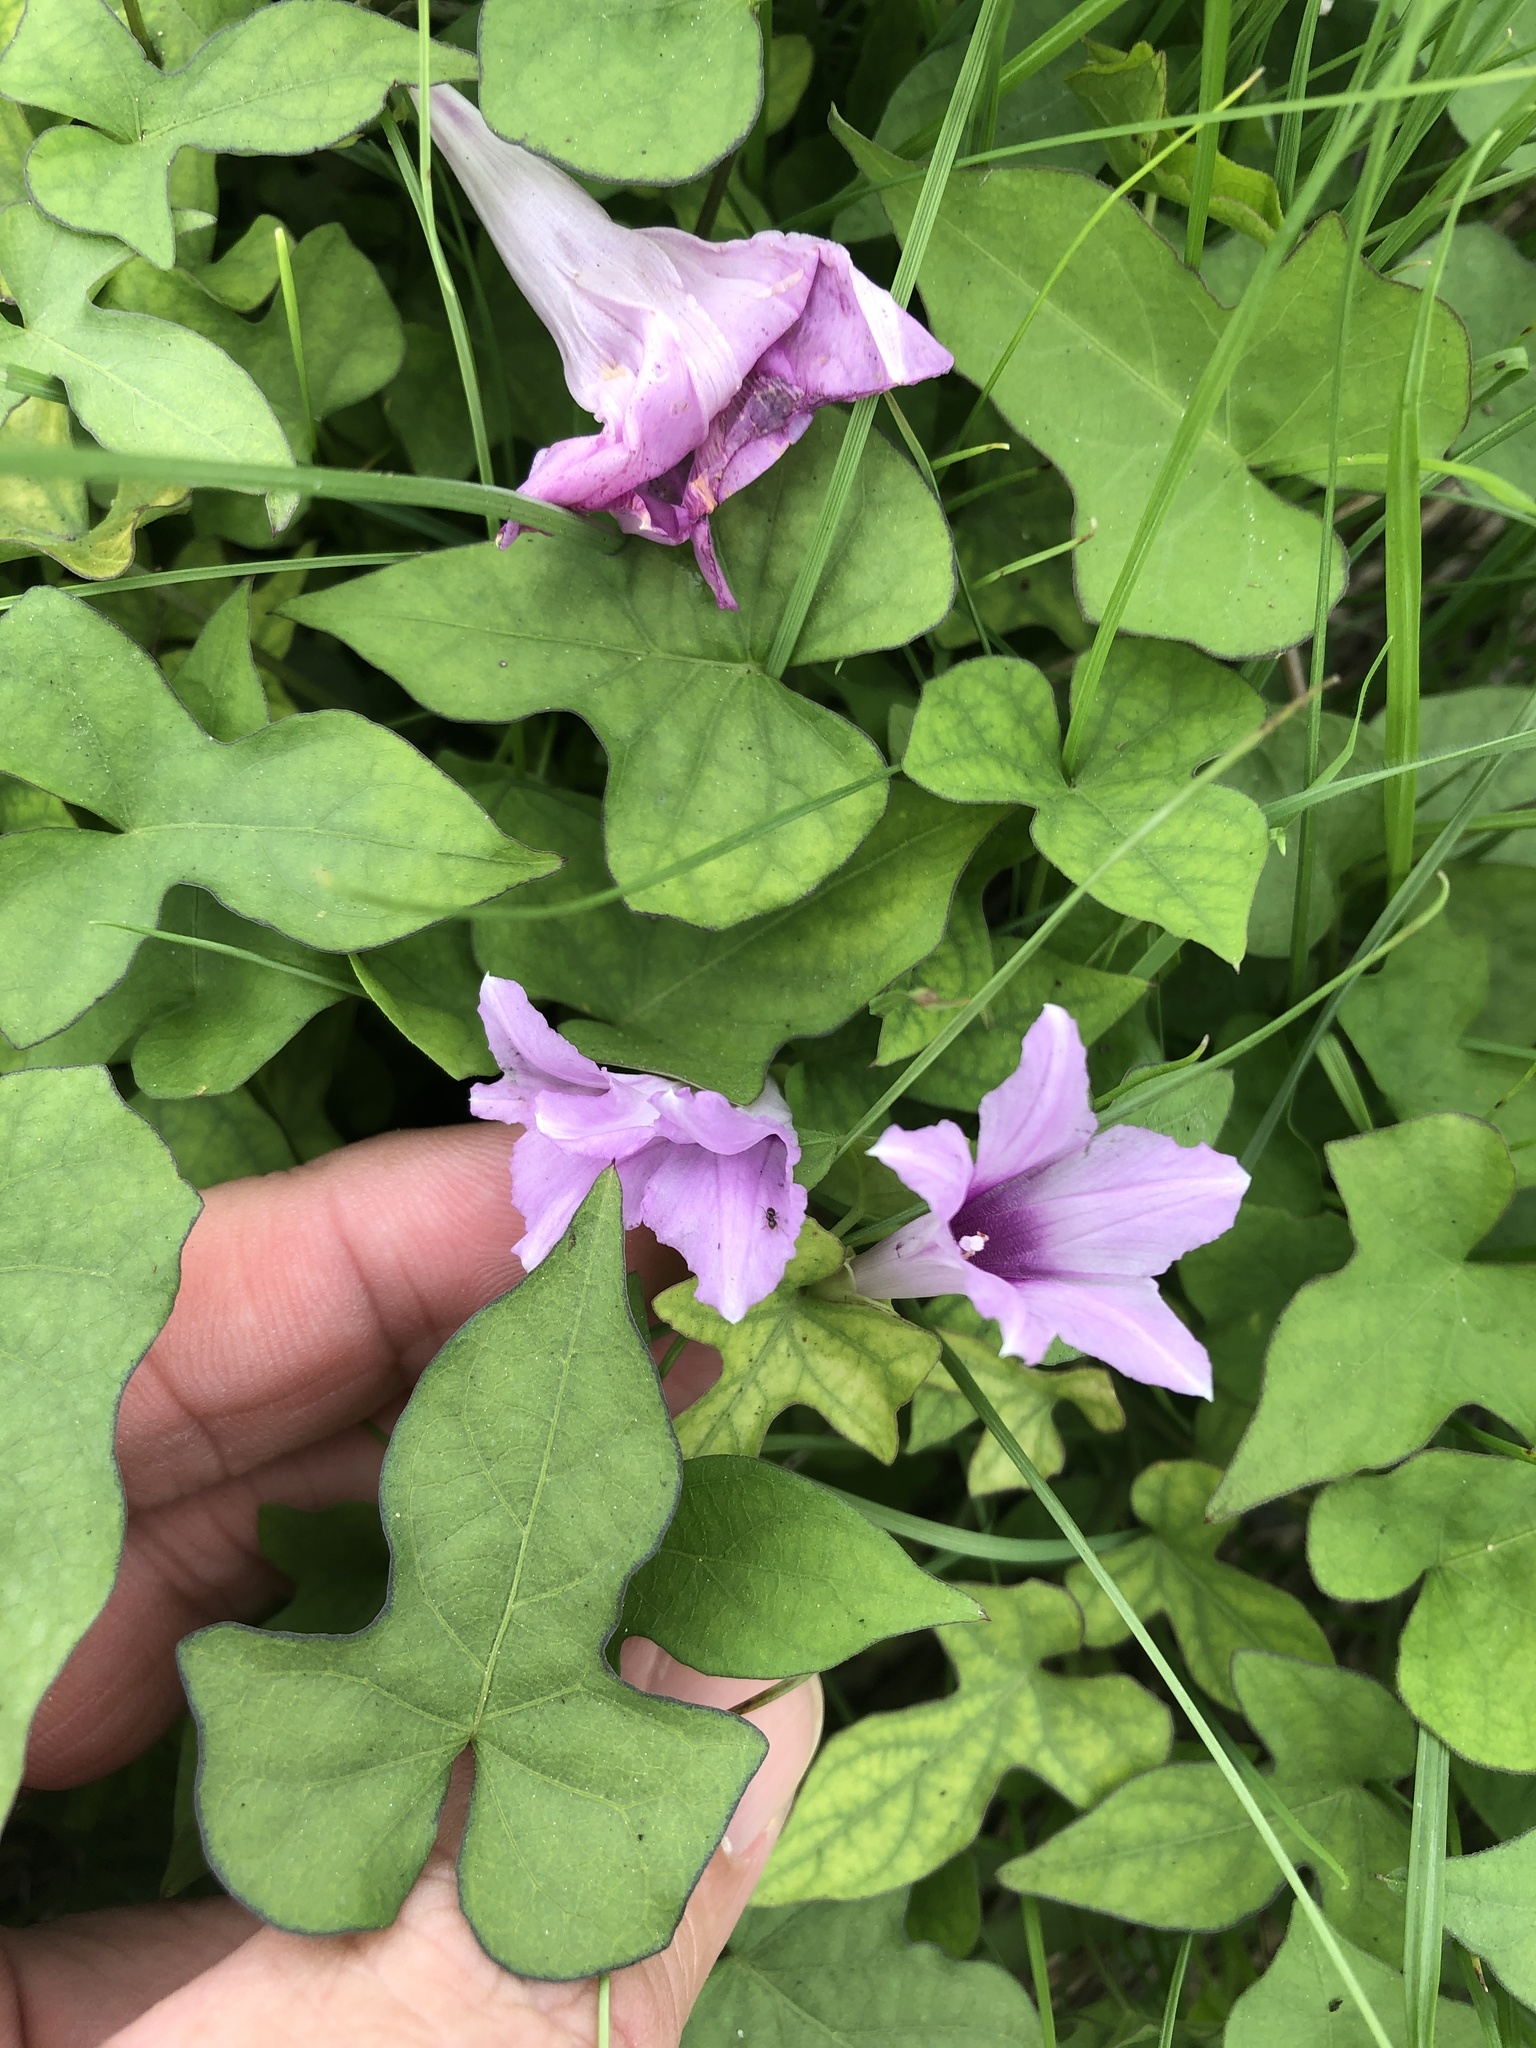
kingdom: Plantae
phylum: Tracheophyta
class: Magnoliopsida
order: Solanales
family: Convolvulaceae
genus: Ipomoea
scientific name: Ipomoea cordatotriloba
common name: Cotton morning glory
